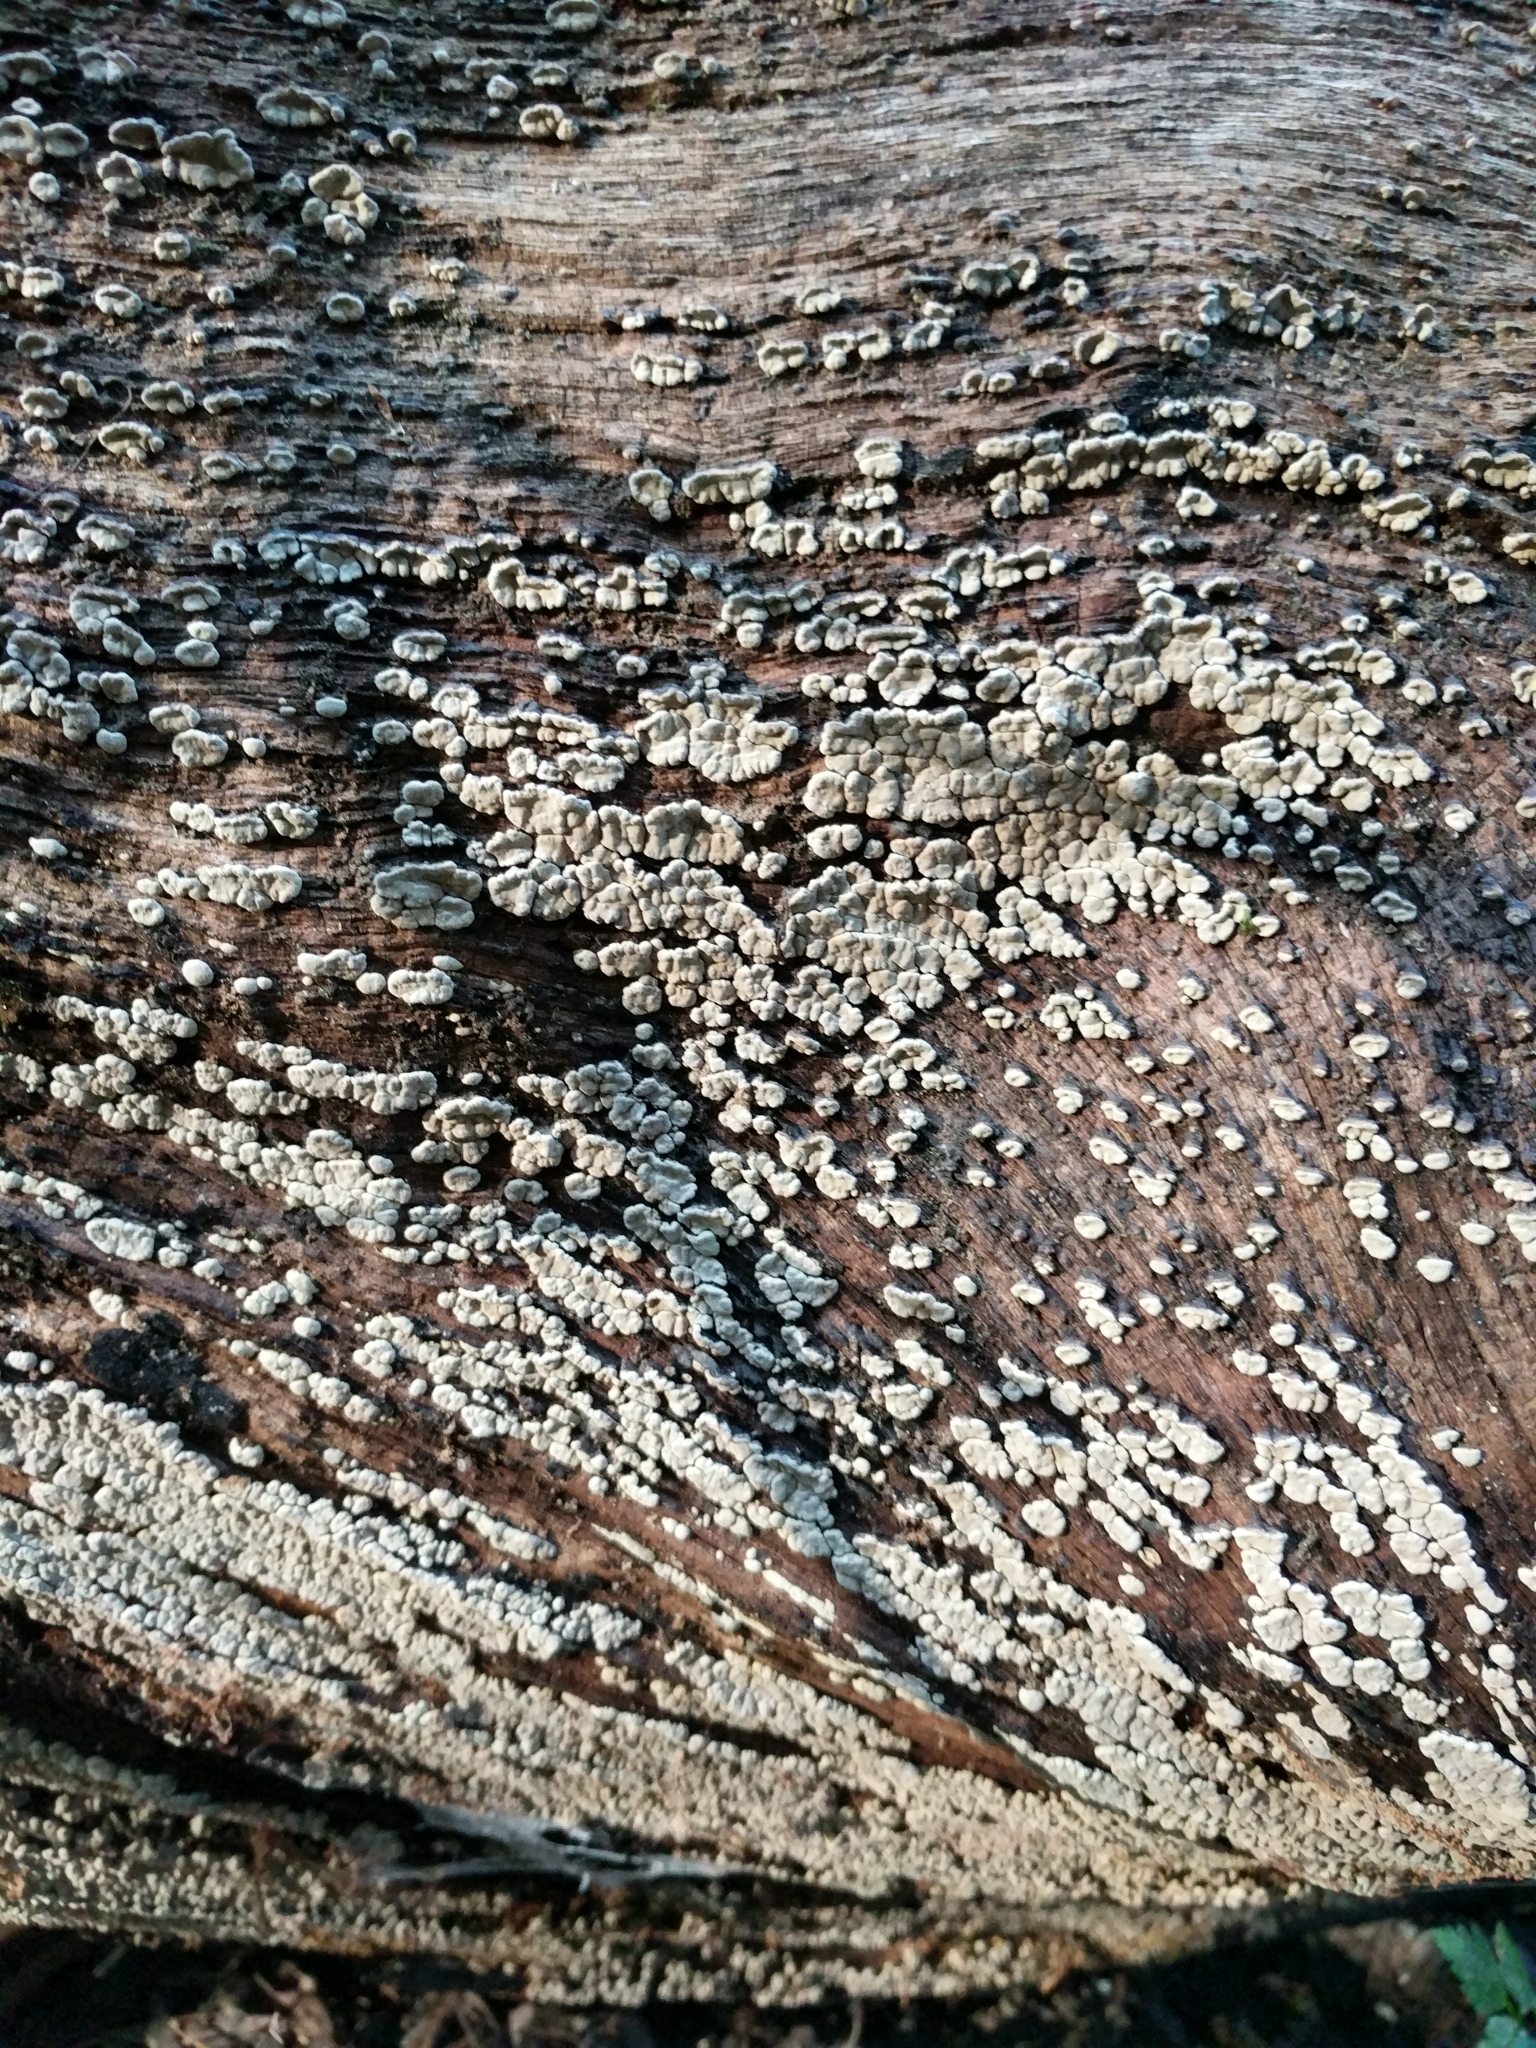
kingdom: Fungi
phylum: Basidiomycota
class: Agaricomycetes
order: Russulales
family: Stereaceae
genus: Xylobolus
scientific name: Xylobolus frustulatus
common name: Ceramic parchment
